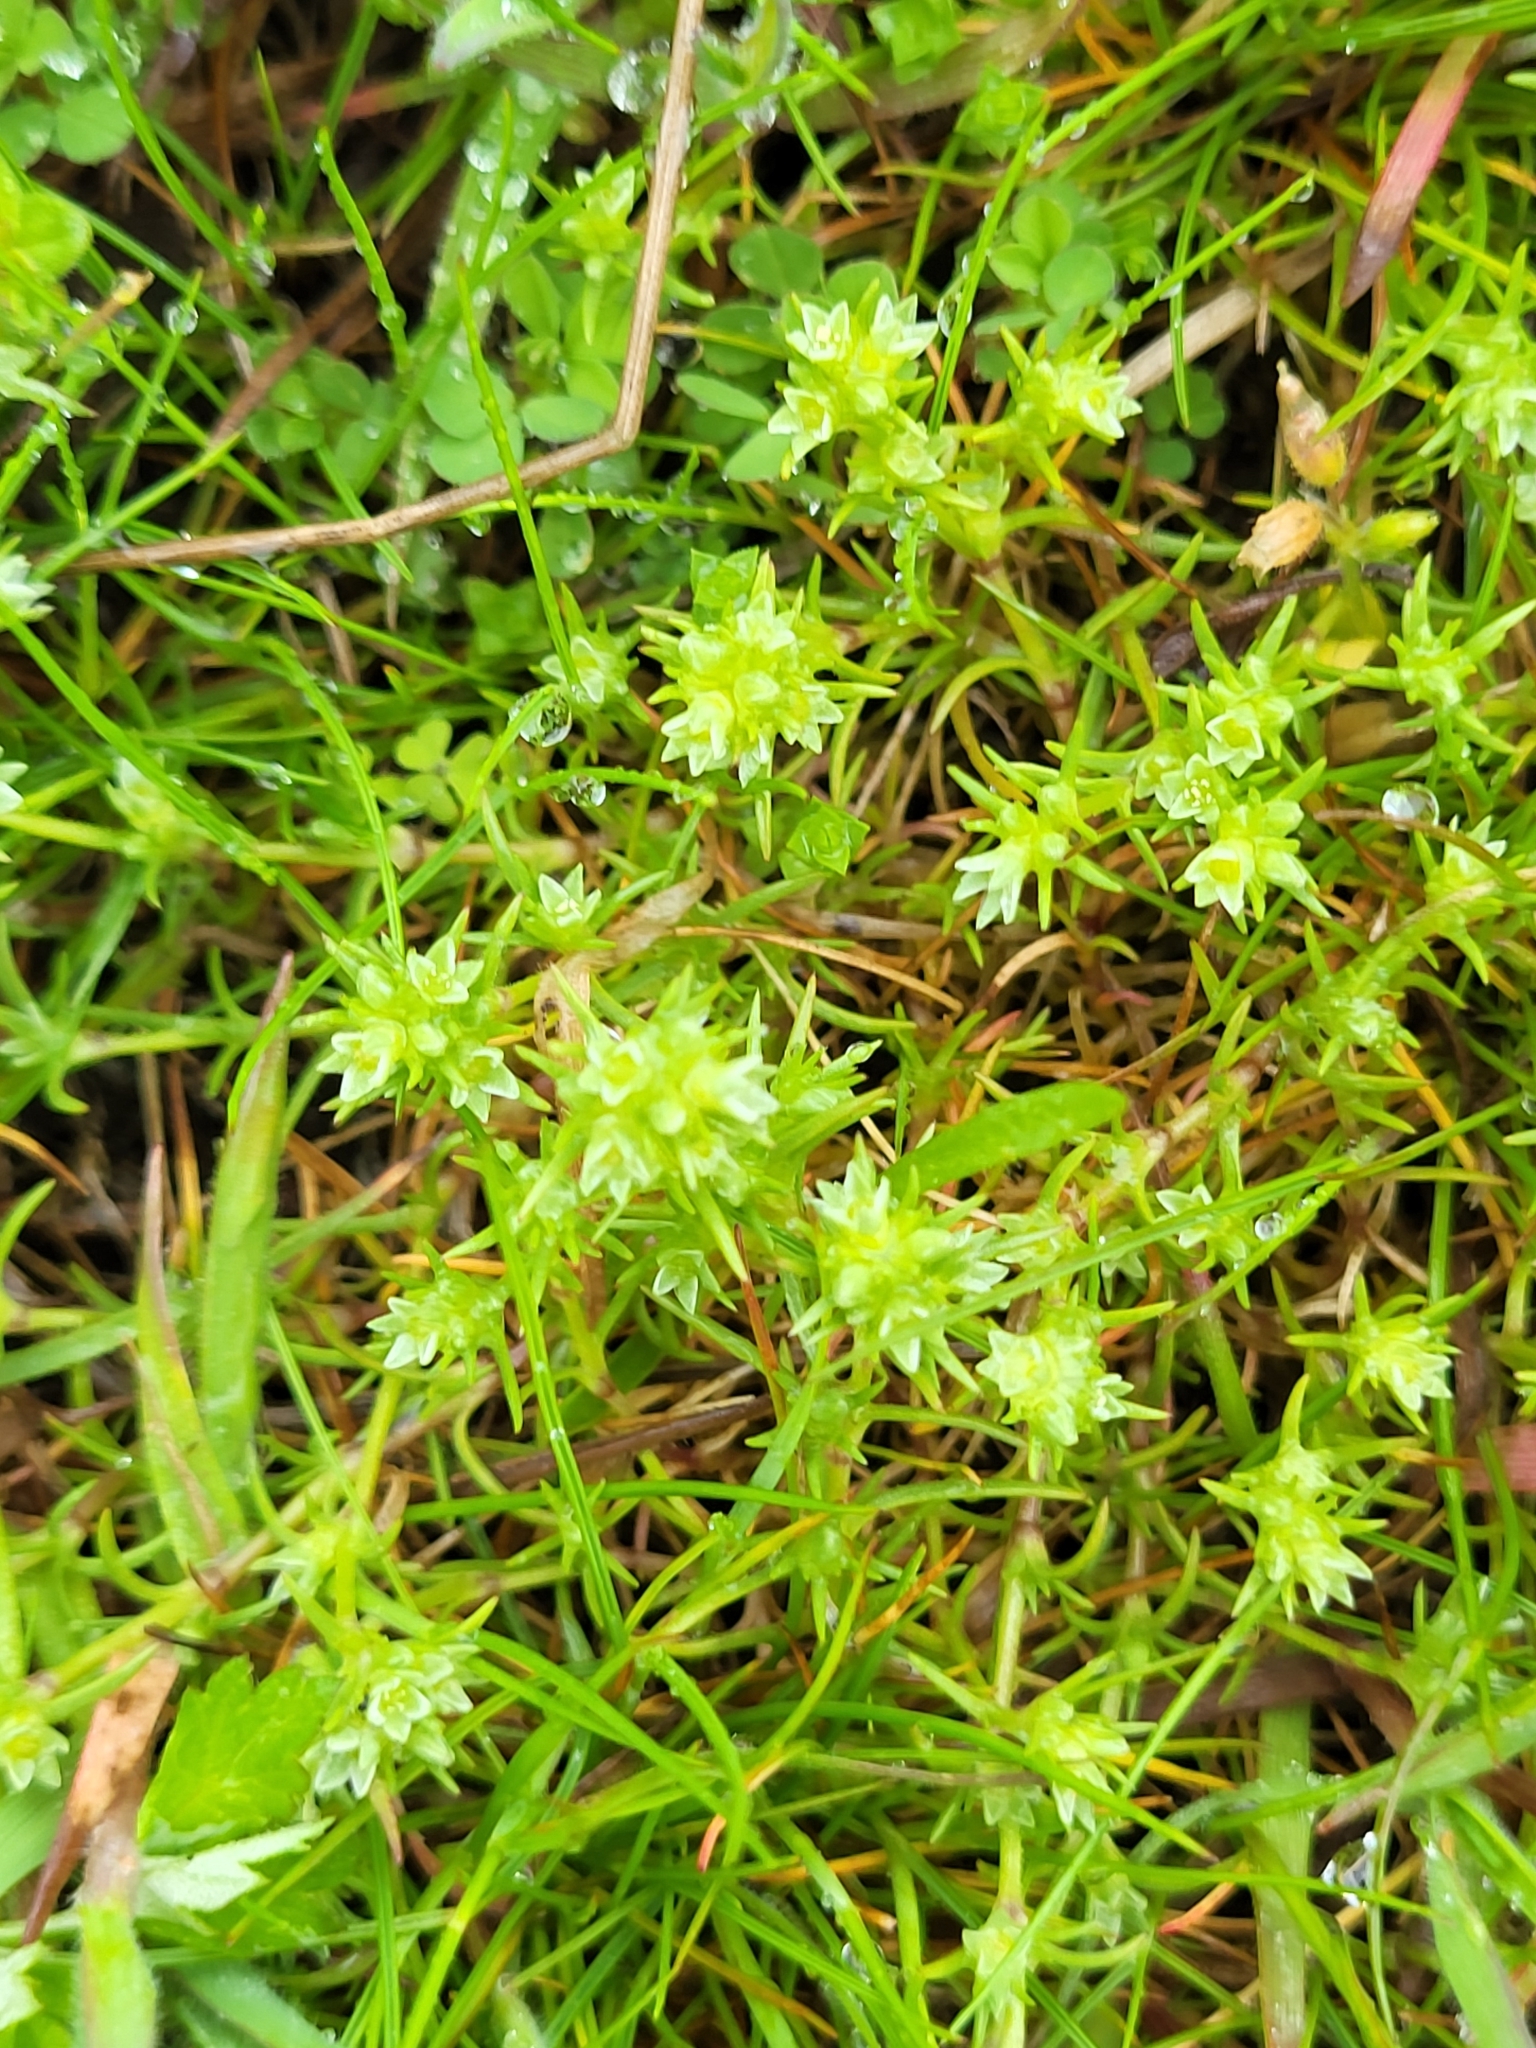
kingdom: Plantae
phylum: Tracheophyta
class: Magnoliopsida
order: Caryophyllales
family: Caryophyllaceae
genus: Scleranthus
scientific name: Scleranthus annuus
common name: Annual knawel
